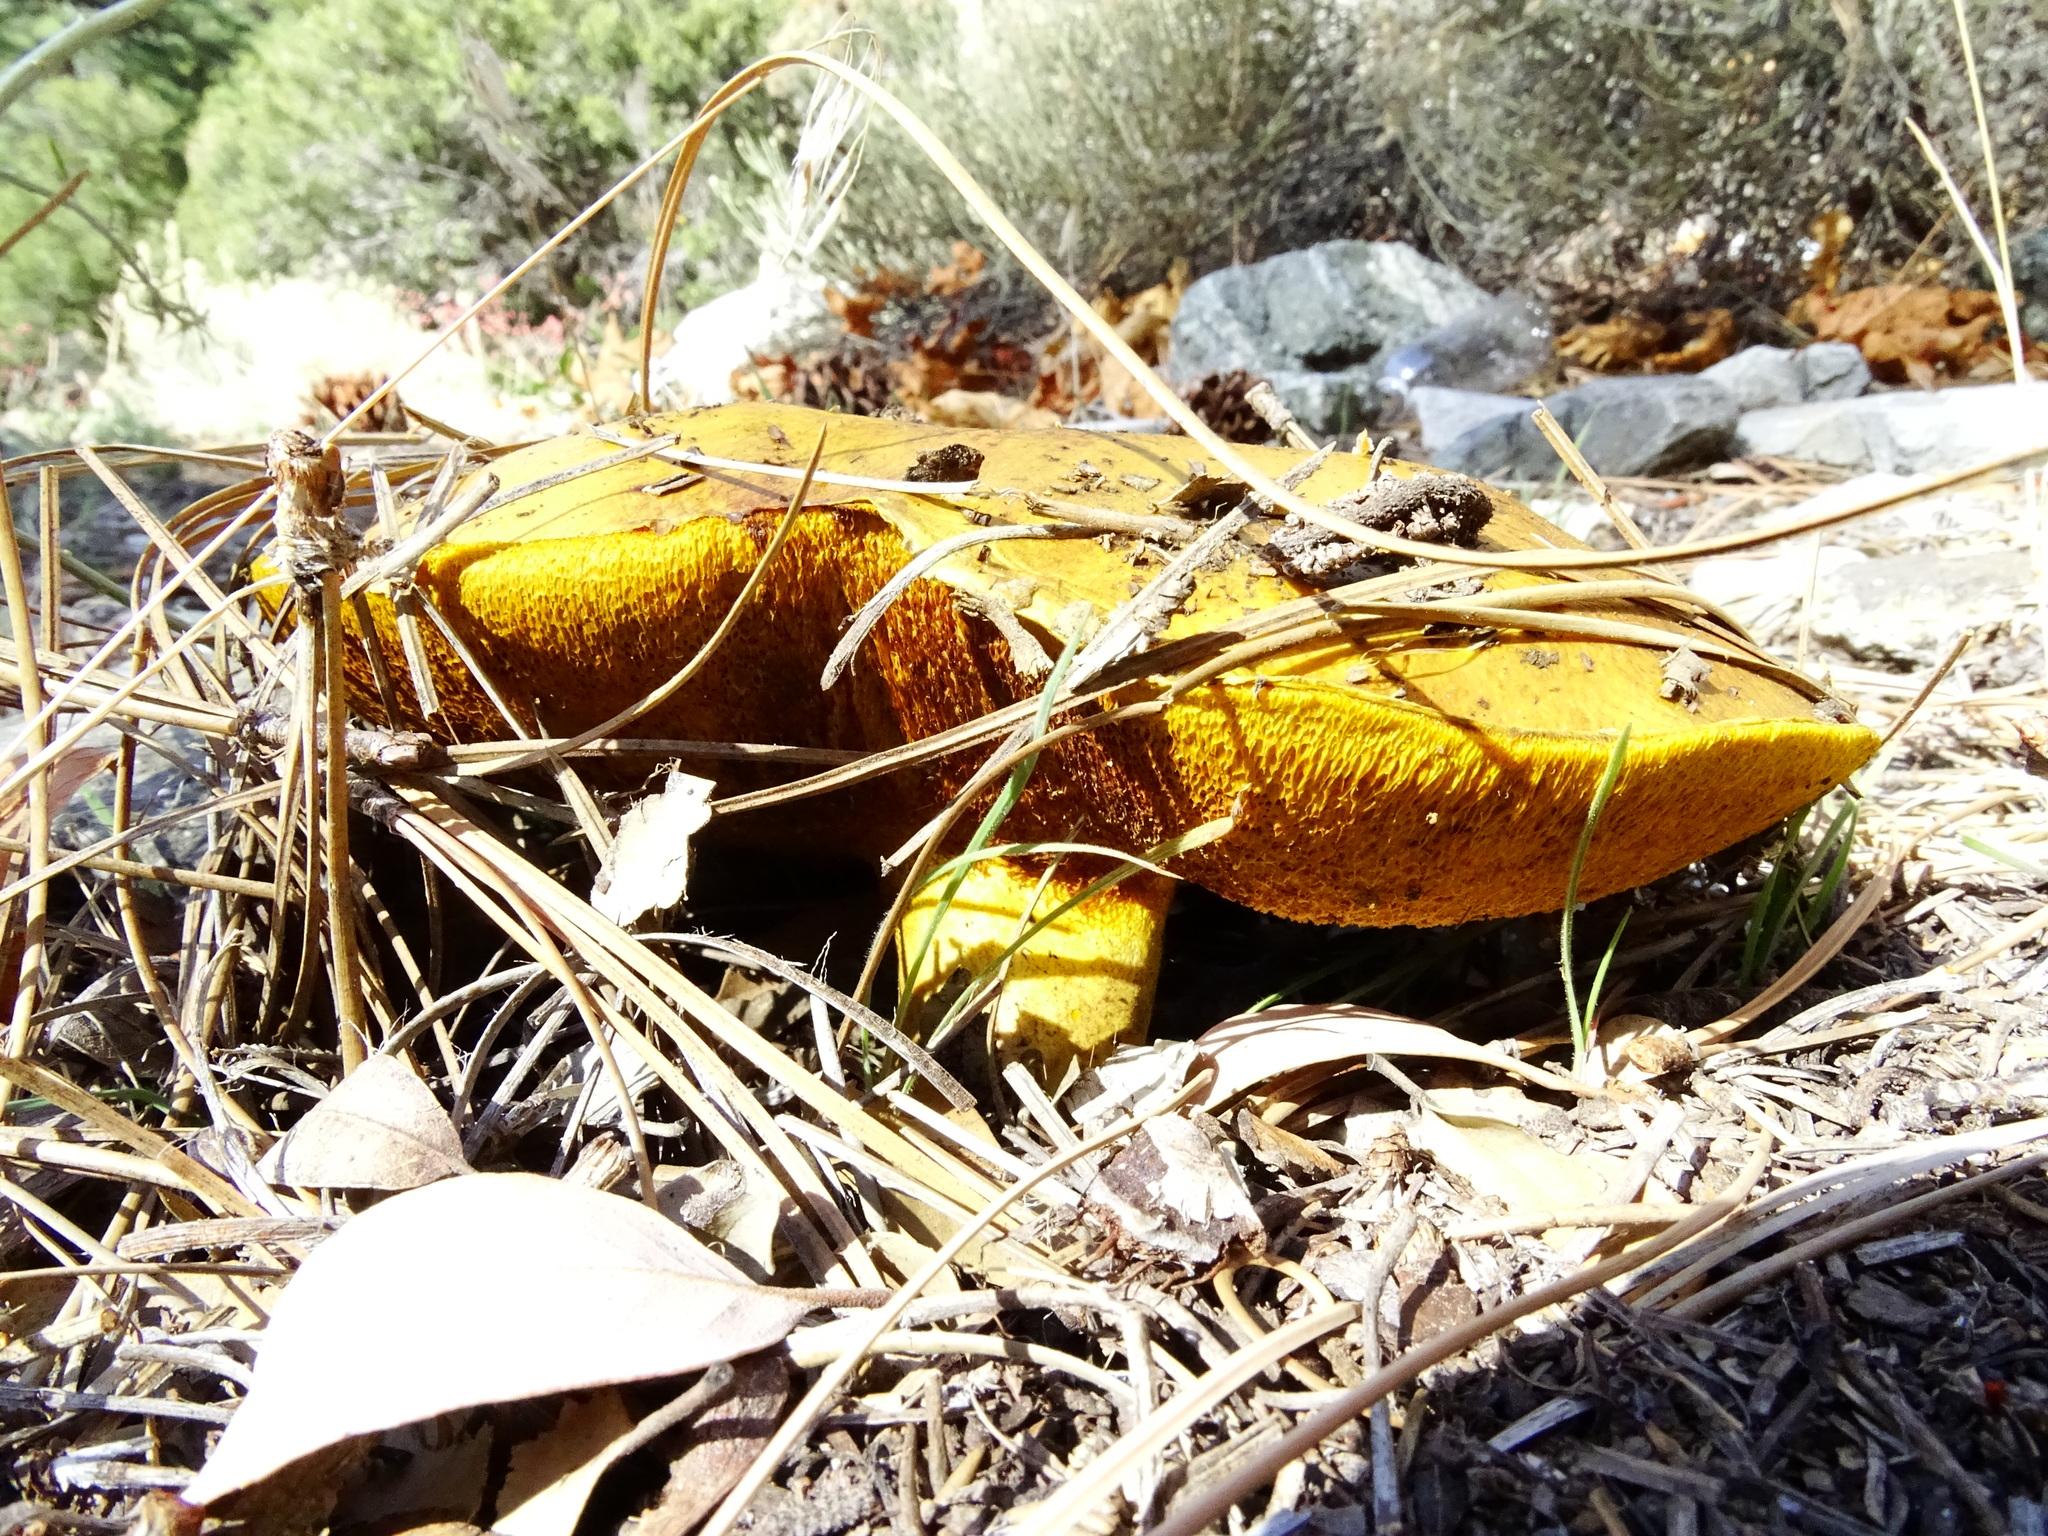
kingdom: Fungi
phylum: Basidiomycota
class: Agaricomycetes
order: Boletales
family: Boletaceae
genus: Boletus
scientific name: Boletus orovillus
